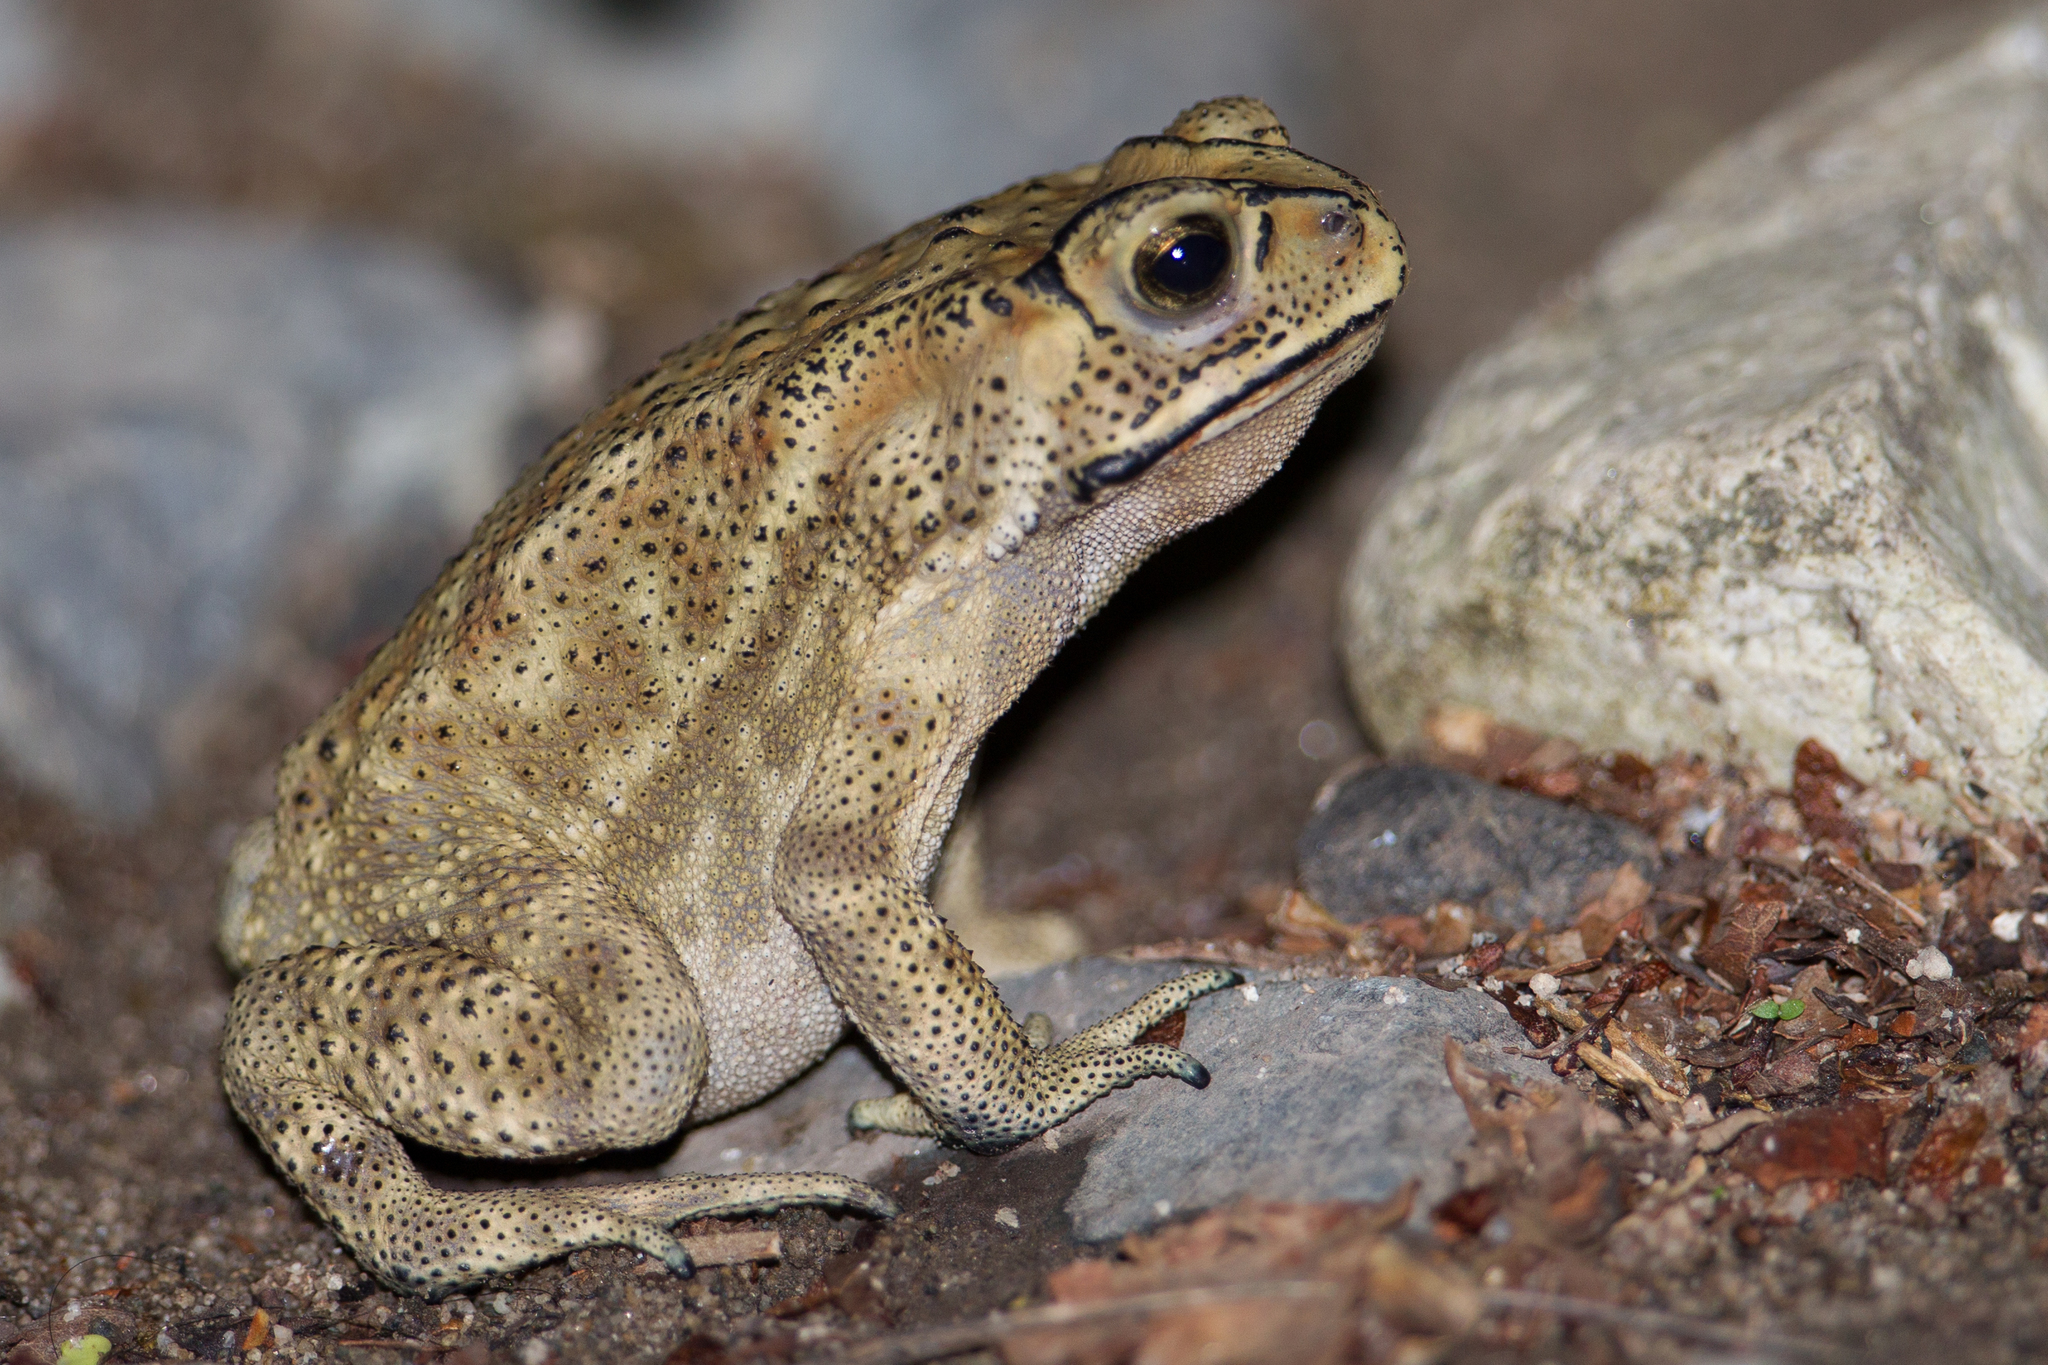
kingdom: Animalia
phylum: Chordata
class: Amphibia
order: Anura
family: Bufonidae
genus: Duttaphrynus
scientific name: Duttaphrynus melanostictus
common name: Common sunda toad
